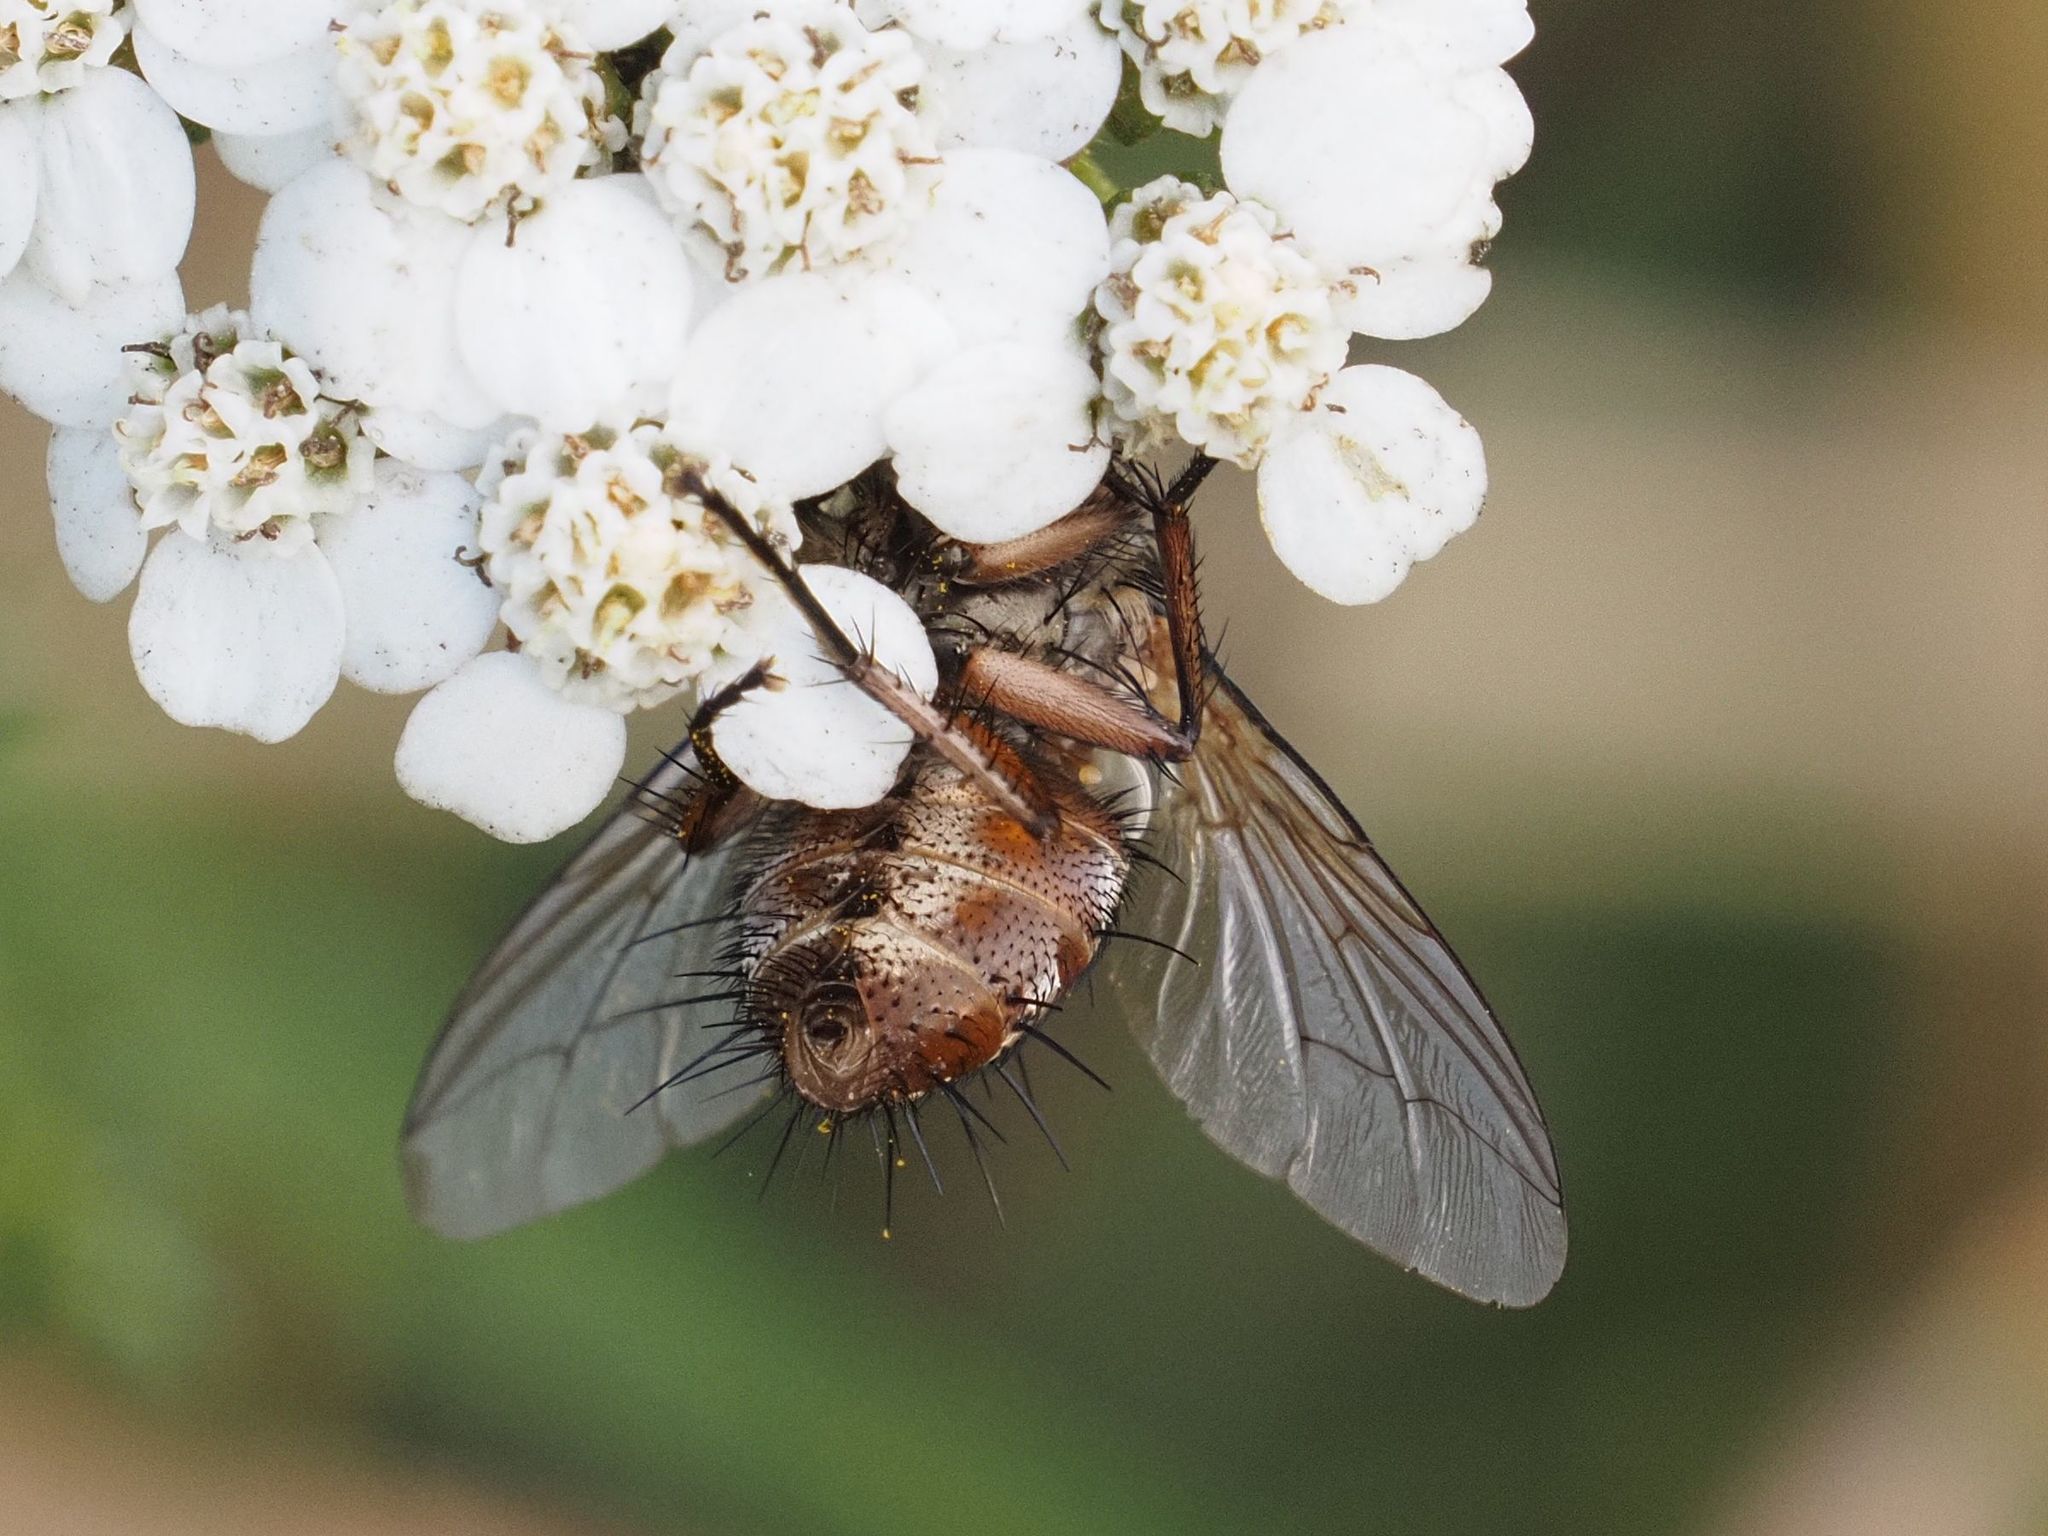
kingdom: Animalia
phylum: Arthropoda
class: Insecta
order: Diptera
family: Tachinidae
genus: Linnaemya
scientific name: Linnaemya vulpina
